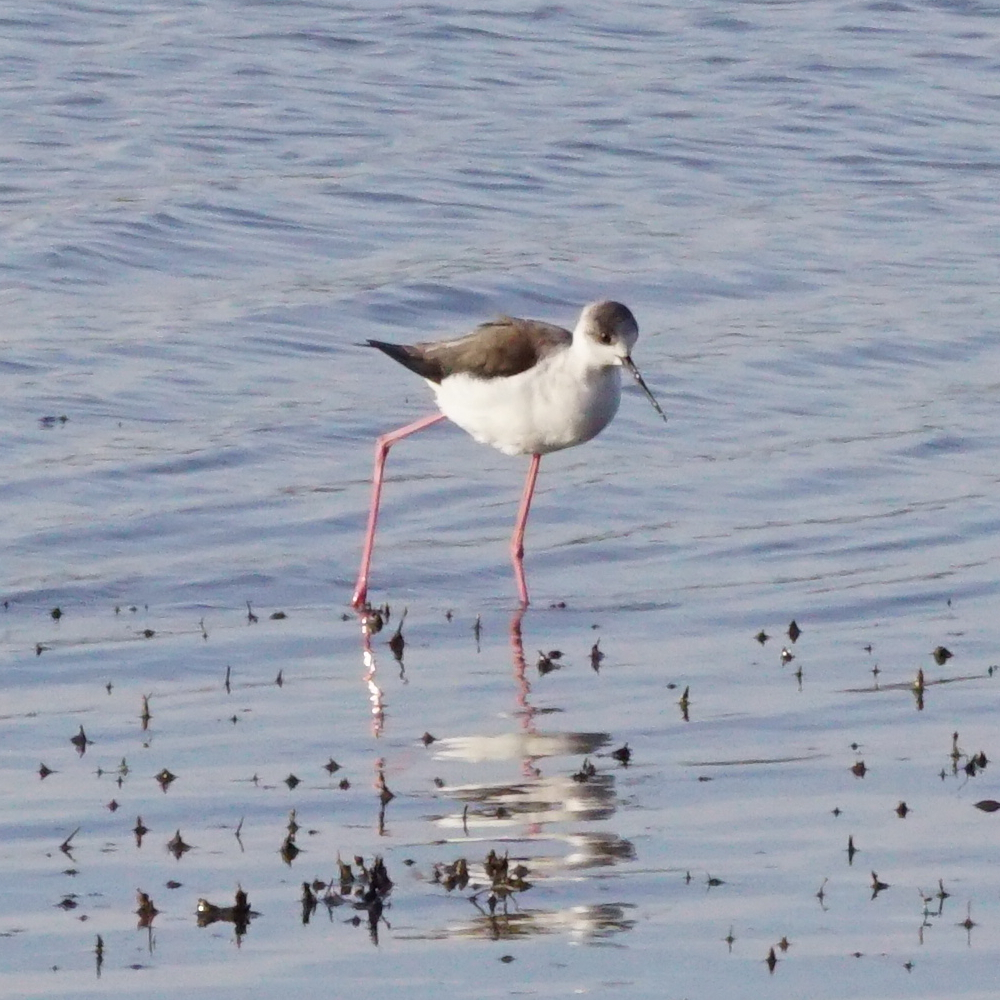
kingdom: Animalia
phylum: Chordata
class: Aves
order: Charadriiformes
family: Recurvirostridae
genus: Himantopus
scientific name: Himantopus himantopus
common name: Black-winged stilt
